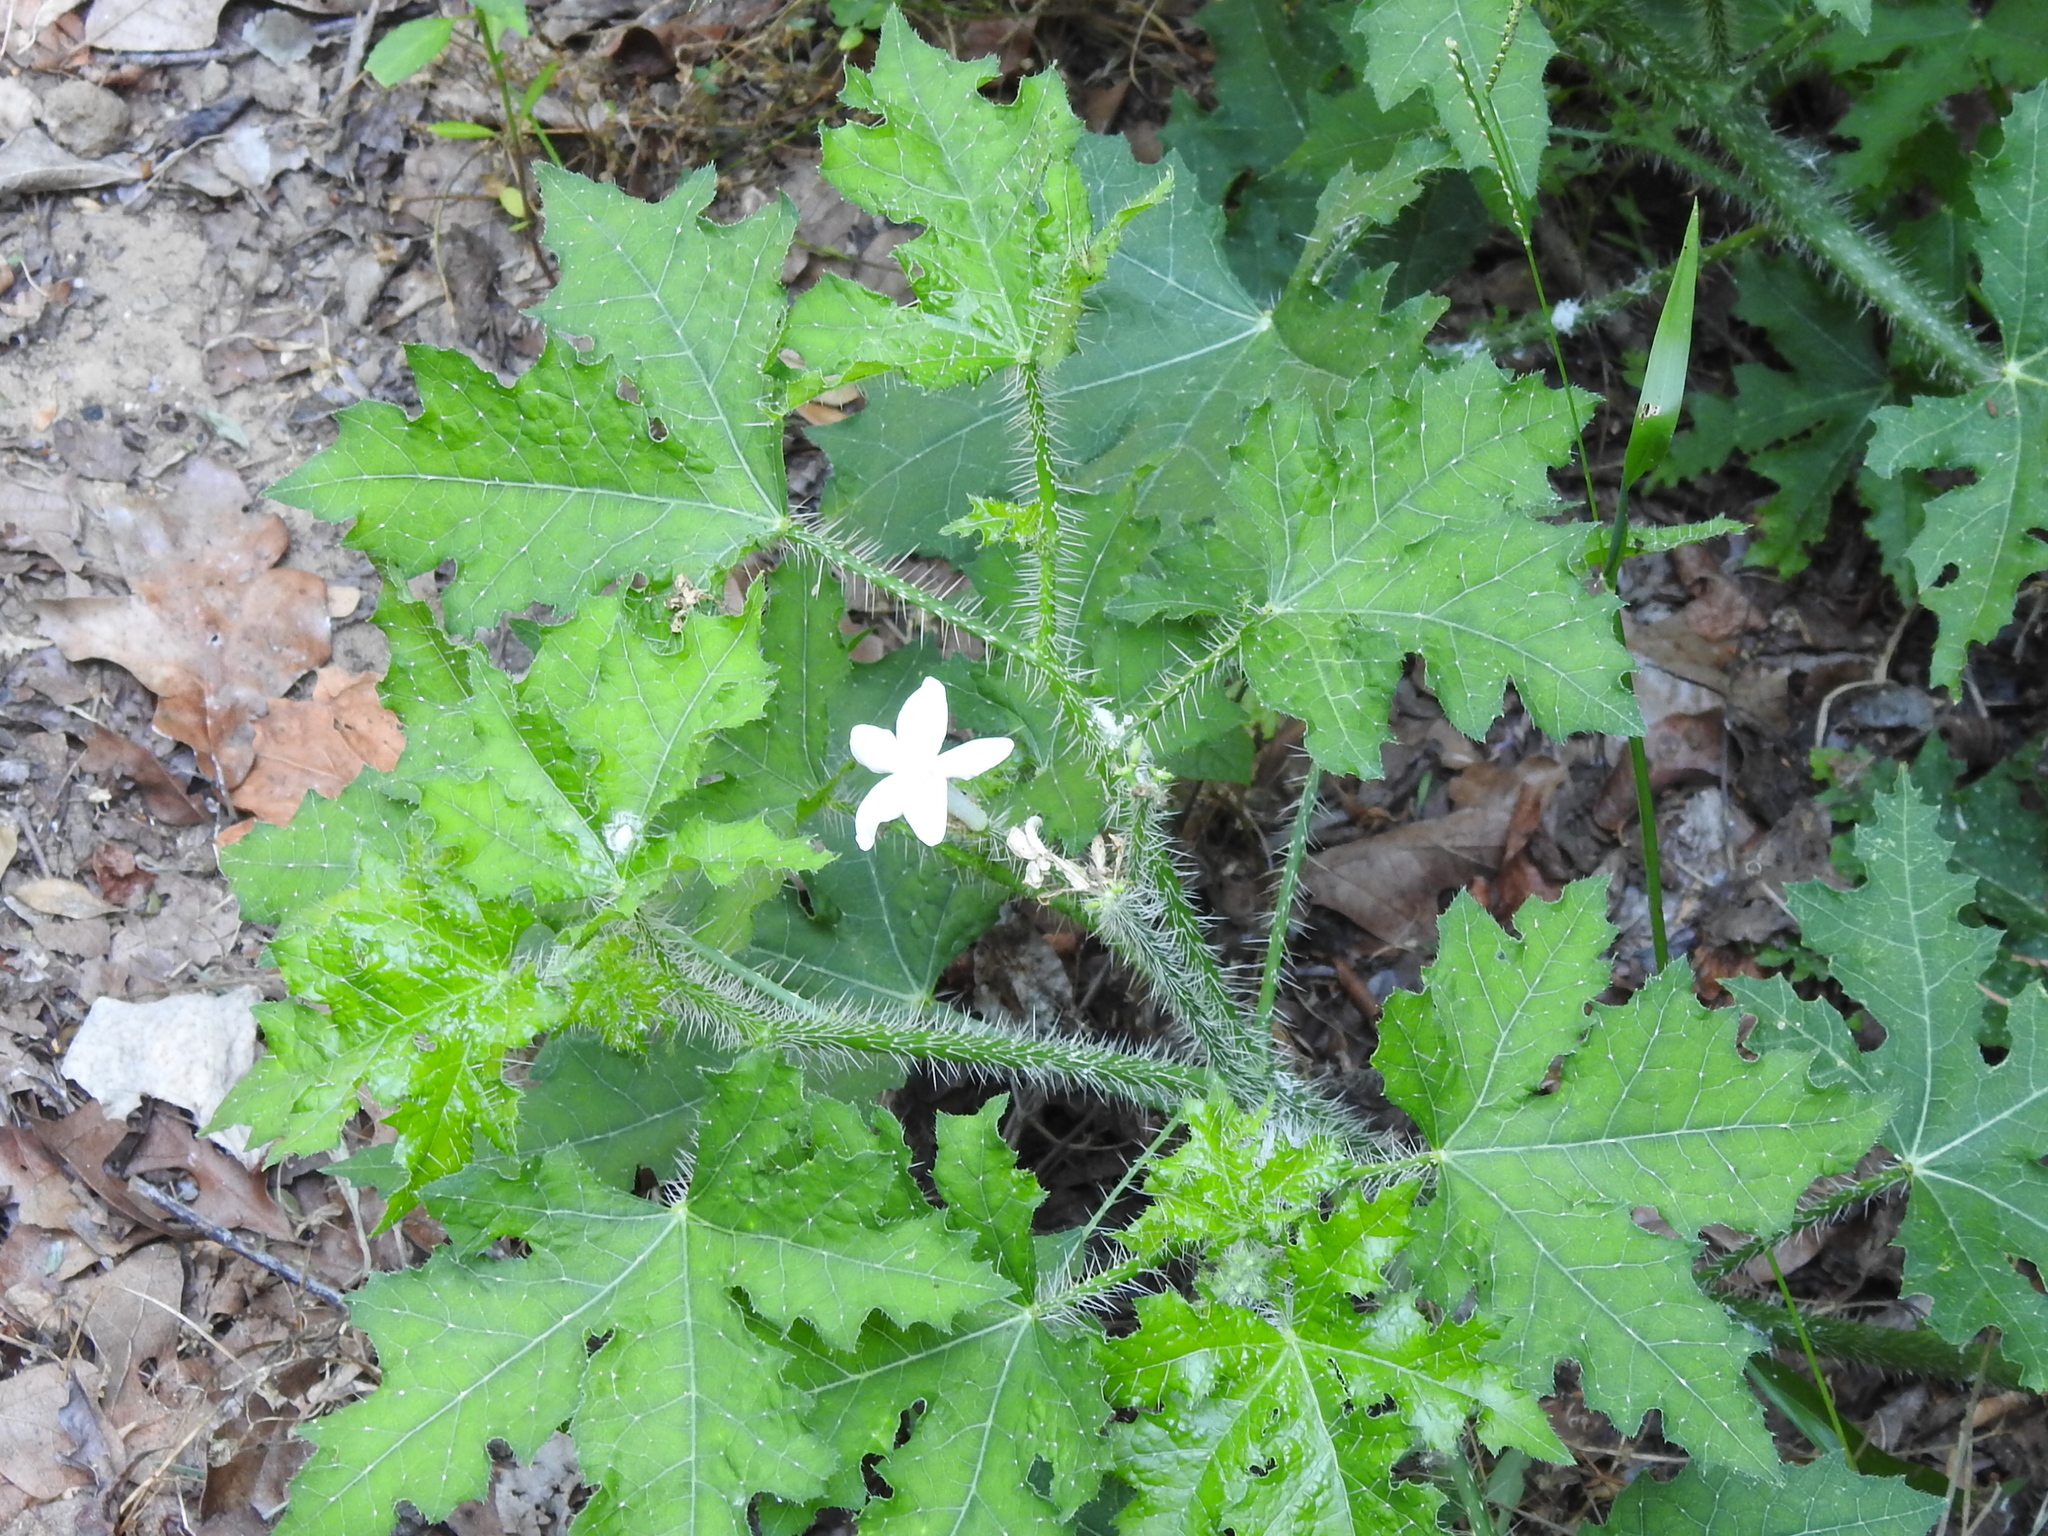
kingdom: Plantae
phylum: Tracheophyta
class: Magnoliopsida
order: Malpighiales
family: Euphorbiaceae
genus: Cnidoscolus
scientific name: Cnidoscolus texanus
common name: Texas bull-nettle
